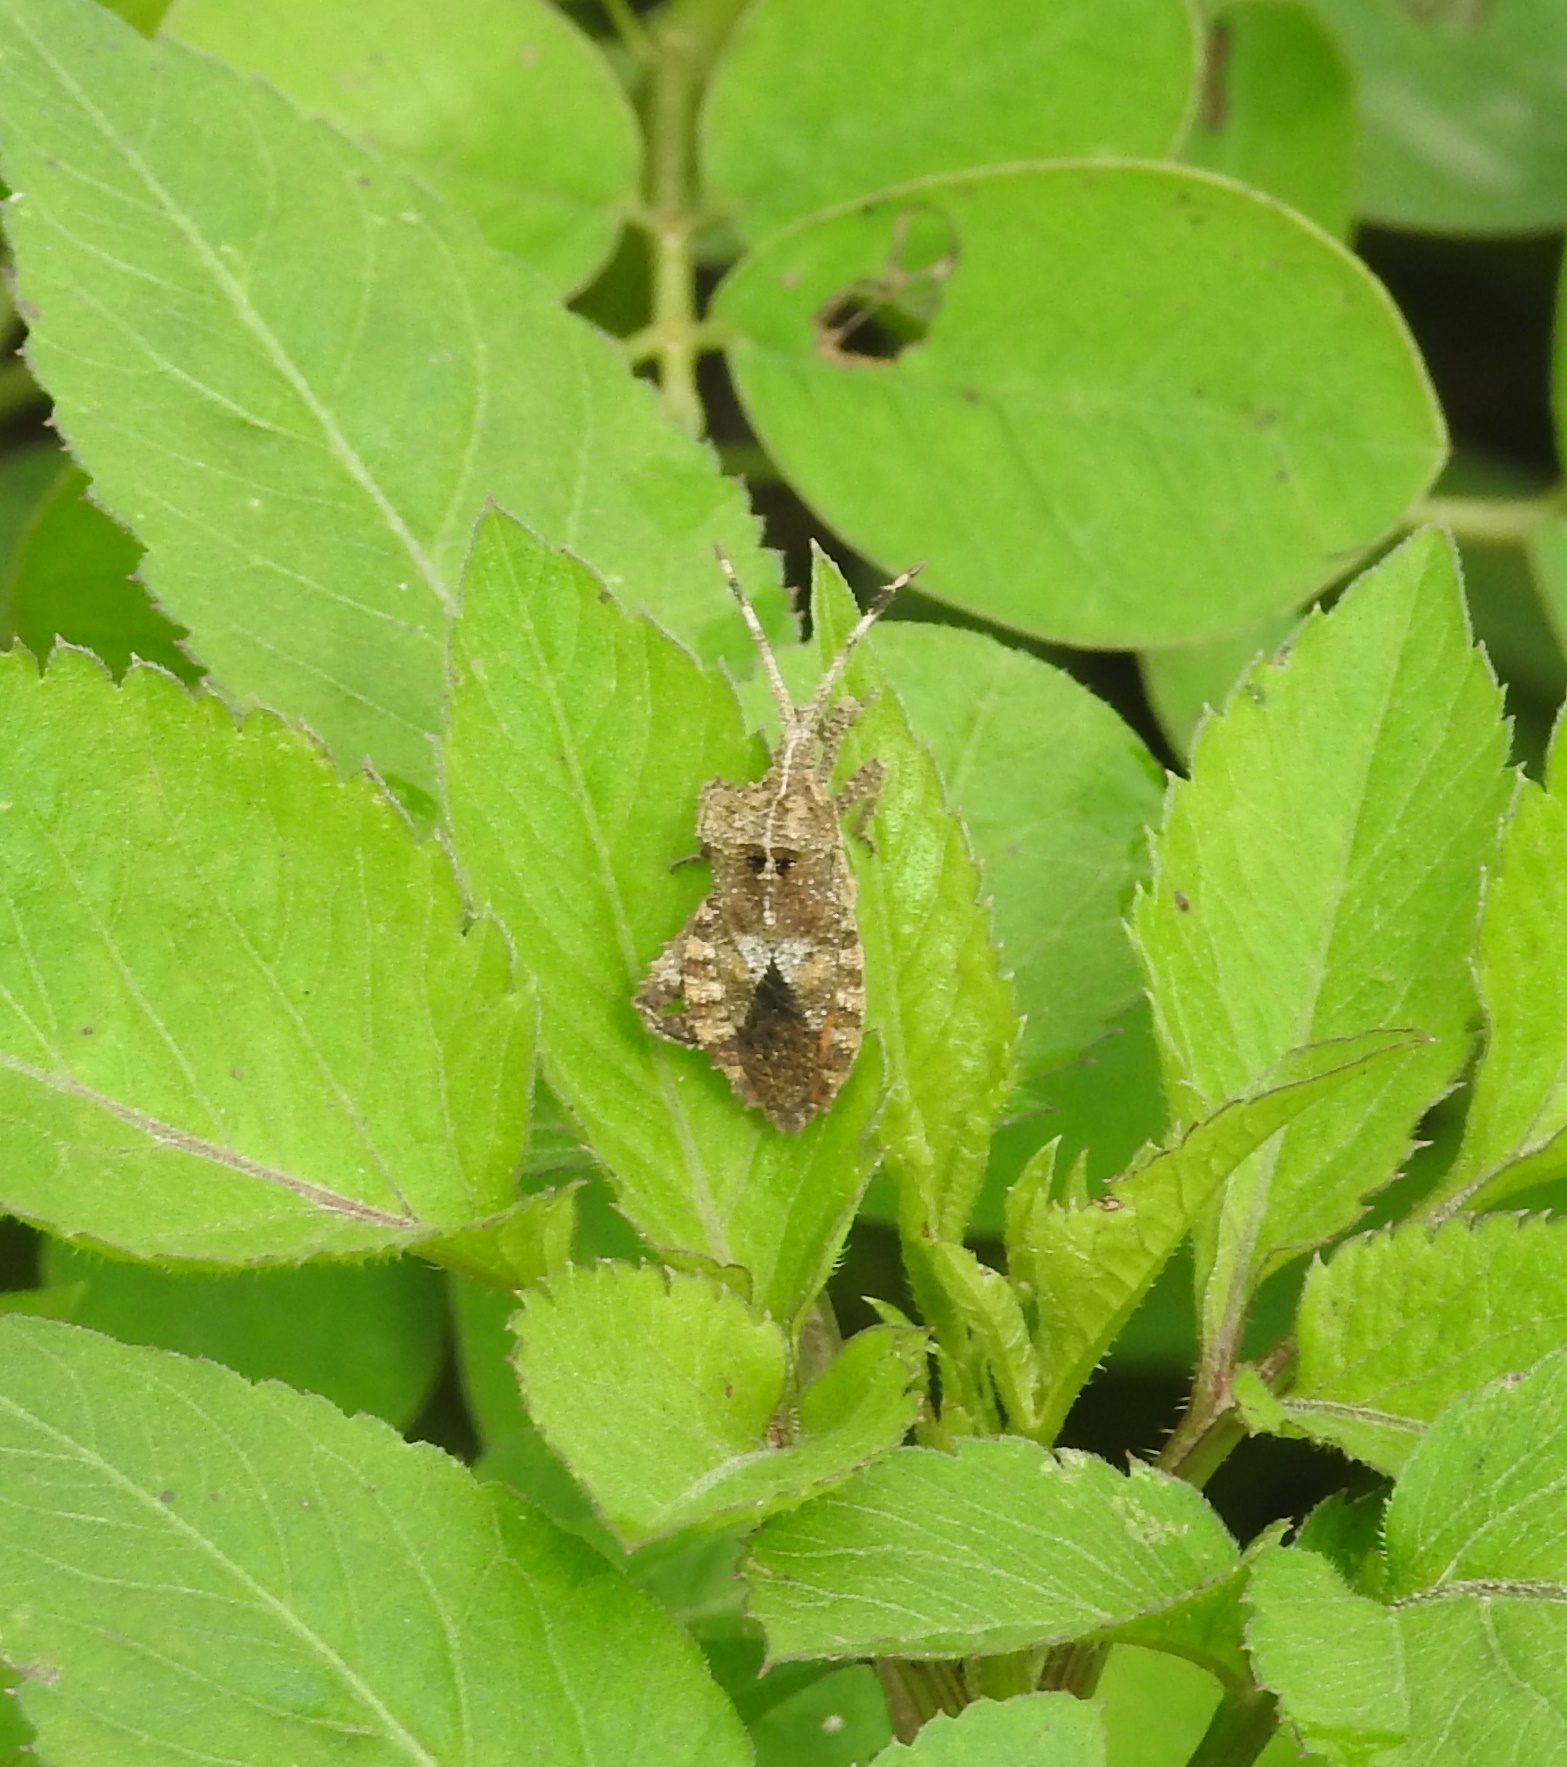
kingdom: Animalia
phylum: Arthropoda
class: Insecta
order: Hemiptera
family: Coreidae
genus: Petalocnemis
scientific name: Petalocnemis obscura
